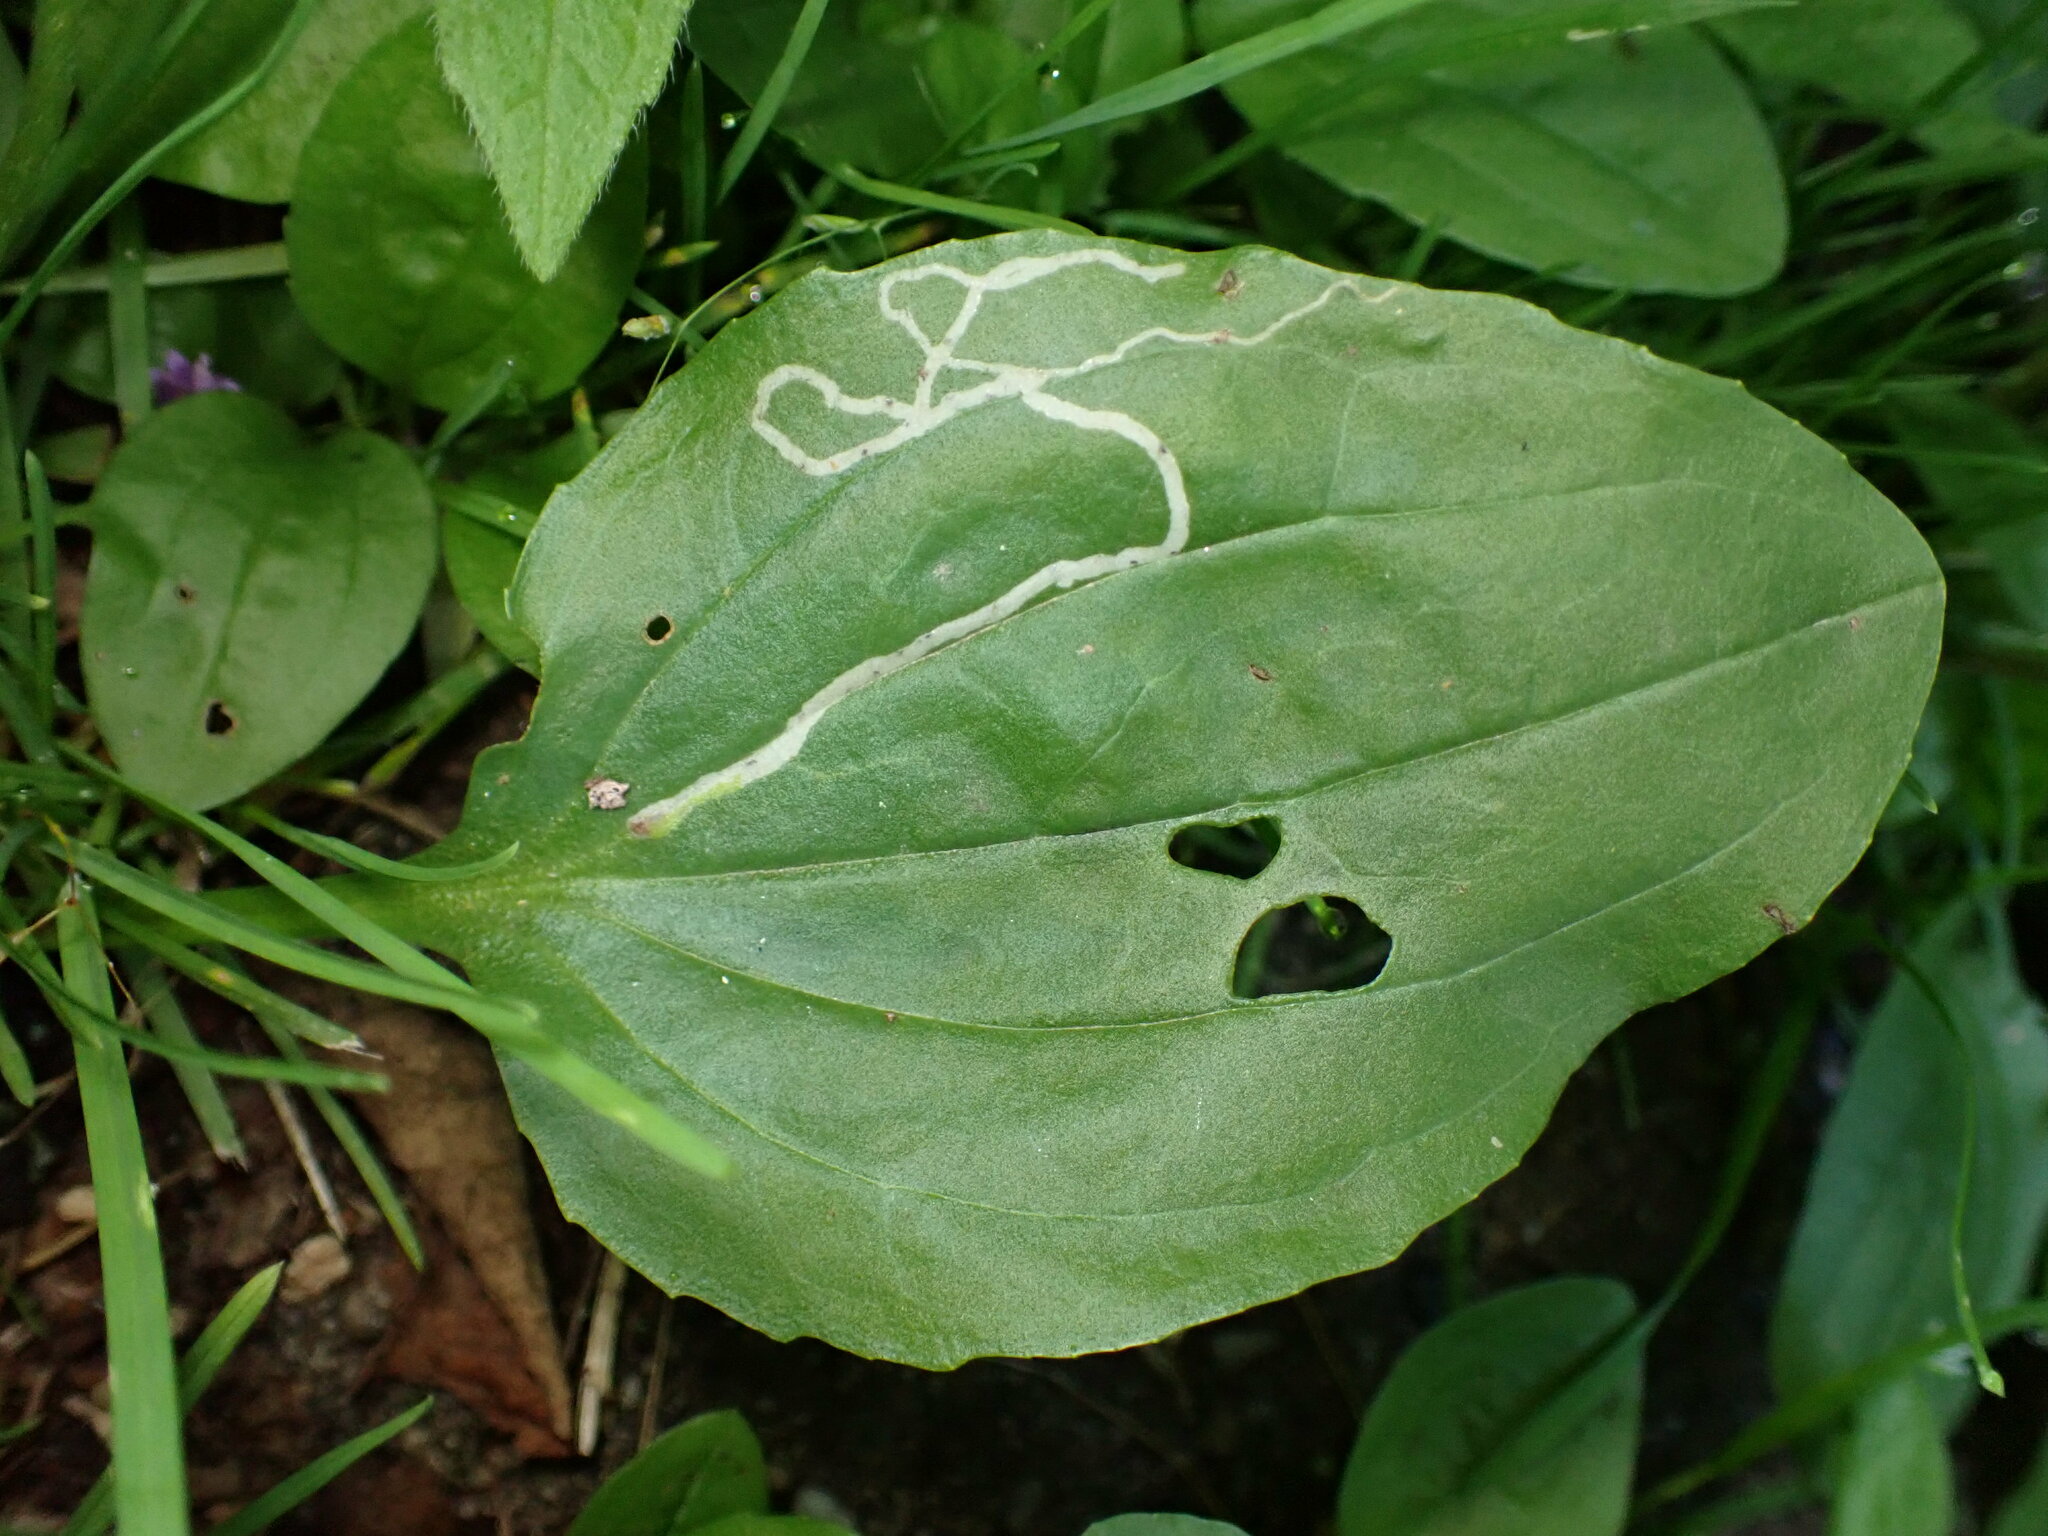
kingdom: Animalia
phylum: Arthropoda
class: Insecta
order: Diptera
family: Agromyzidae
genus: Phytomyza
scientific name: Phytomyza plantaginis
